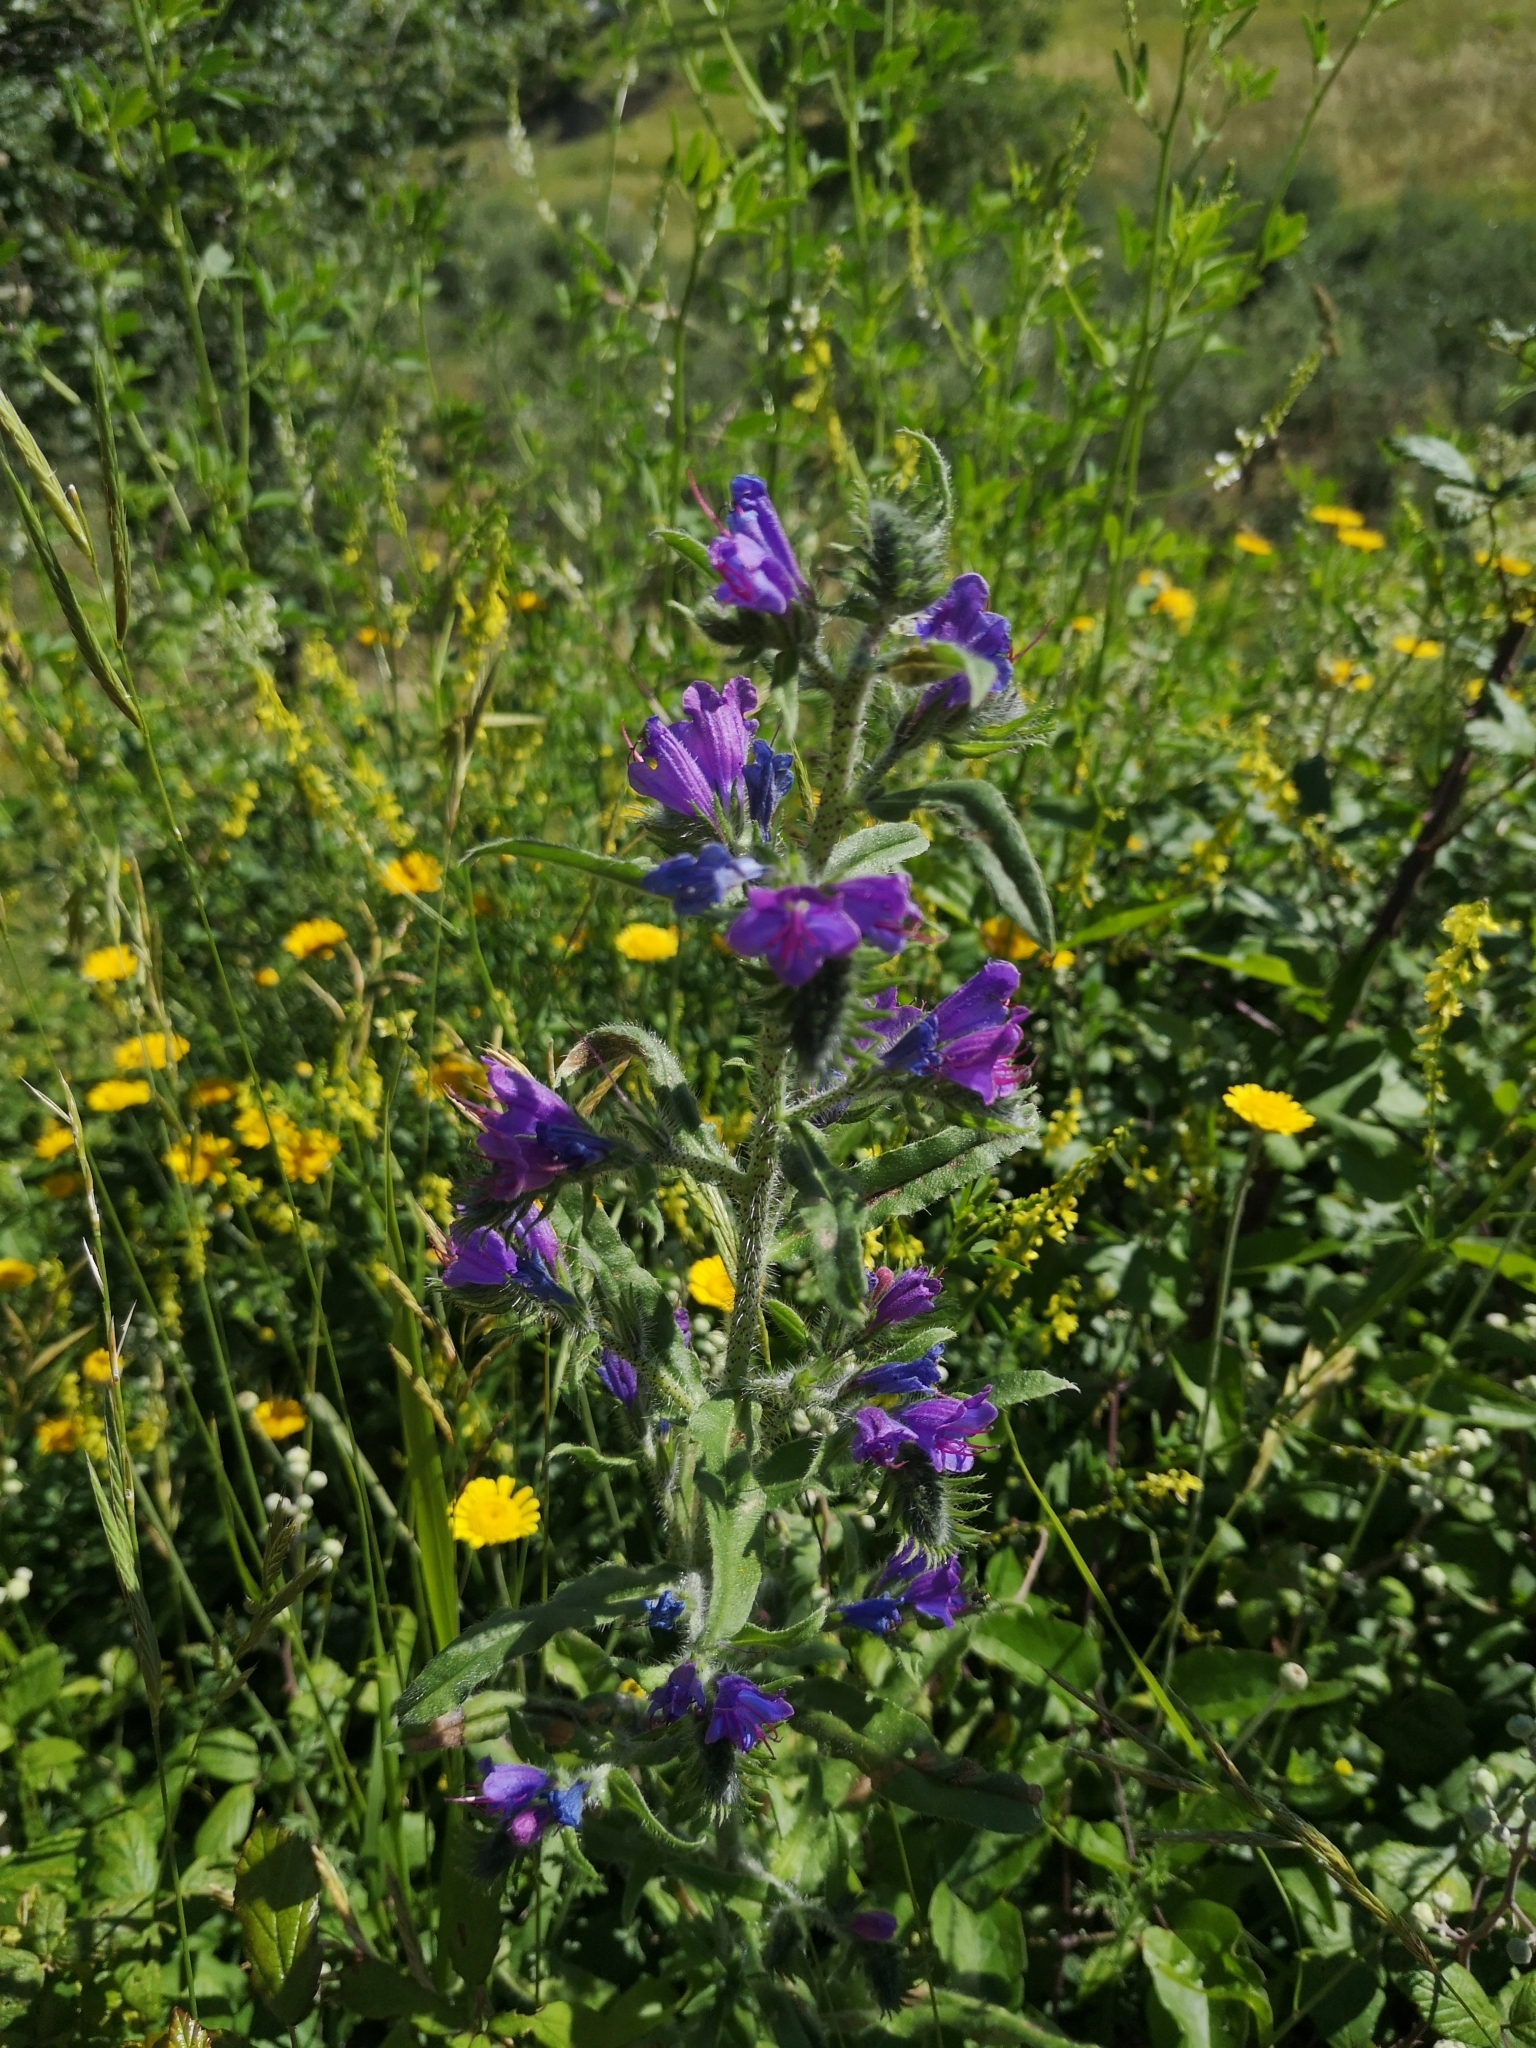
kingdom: Plantae
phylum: Tracheophyta
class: Magnoliopsida
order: Boraginales
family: Boraginaceae
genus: Echium
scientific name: Echium vulgare
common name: Common viper's bugloss
